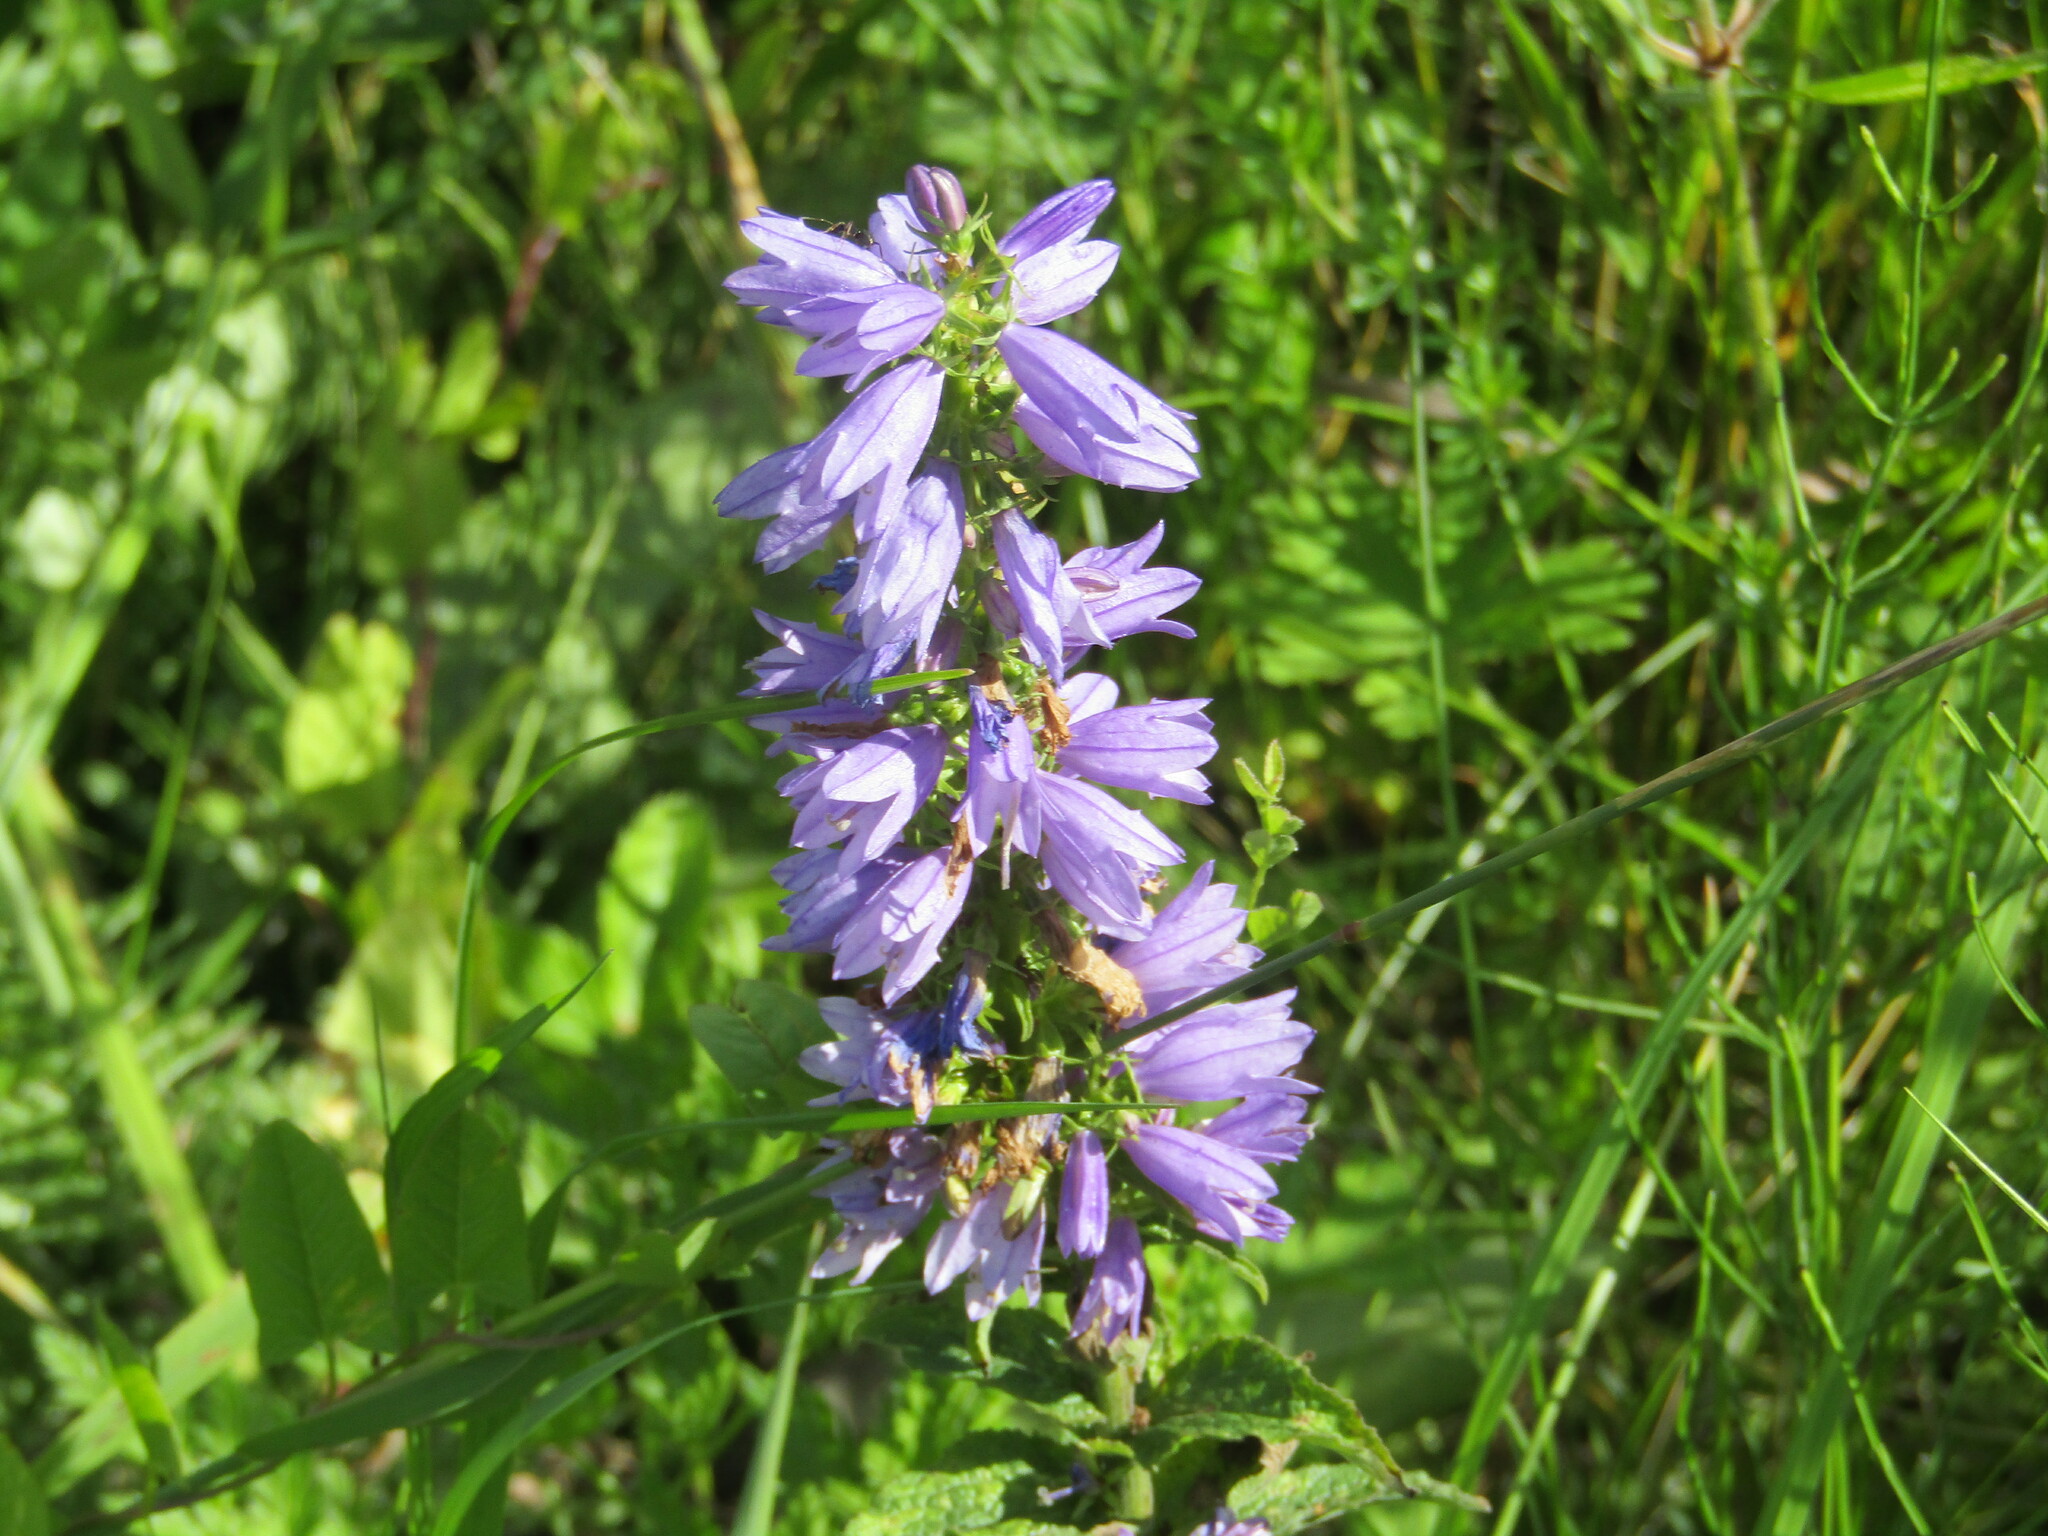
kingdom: Plantae
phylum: Tracheophyta
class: Magnoliopsida
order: Asterales
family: Campanulaceae
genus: Campanula
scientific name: Campanula bononiensis
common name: Pale bellflower
